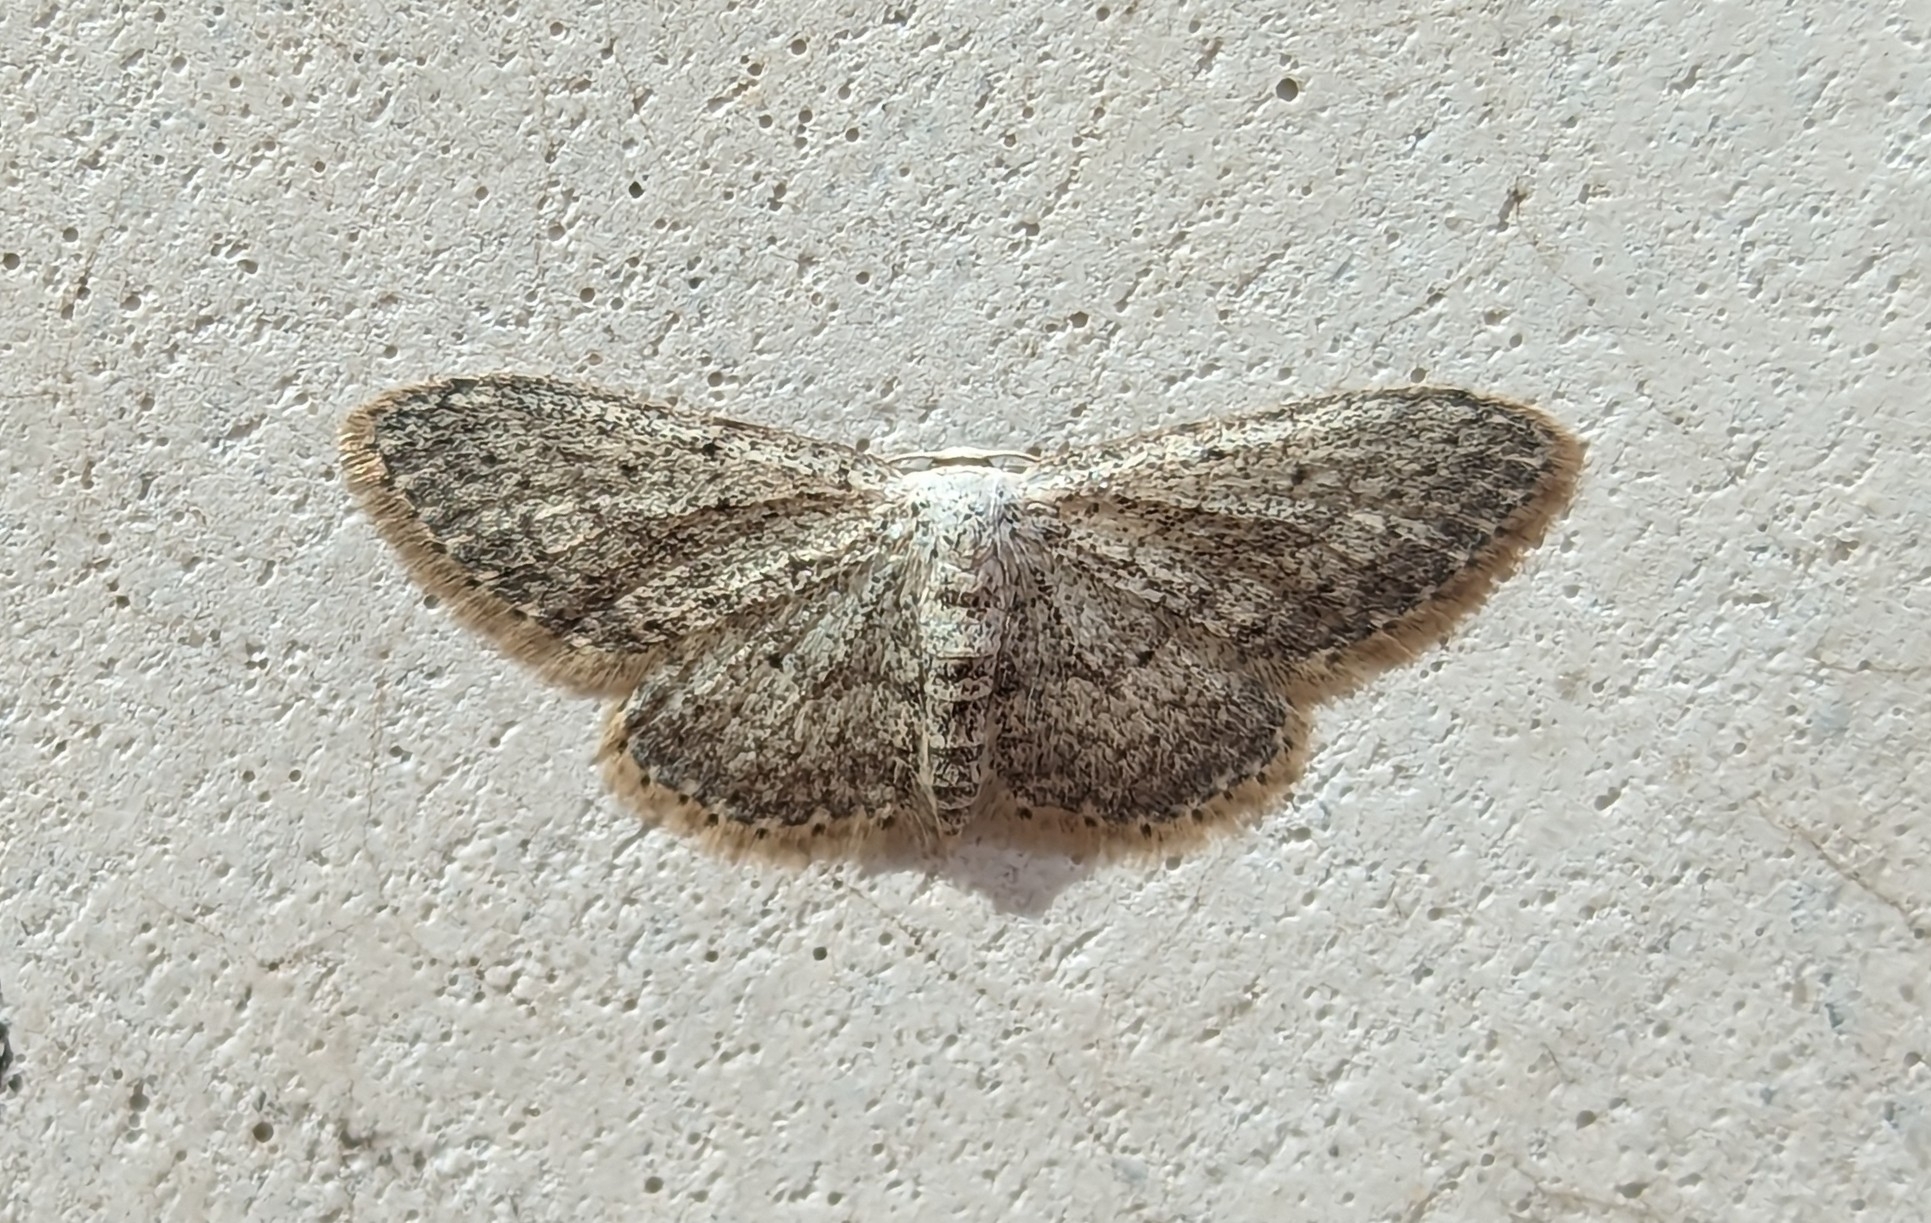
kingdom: Animalia
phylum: Arthropoda
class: Insecta
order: Lepidoptera
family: Geometridae
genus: Idaea
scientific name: Idaea seriata
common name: Small dusty wave
